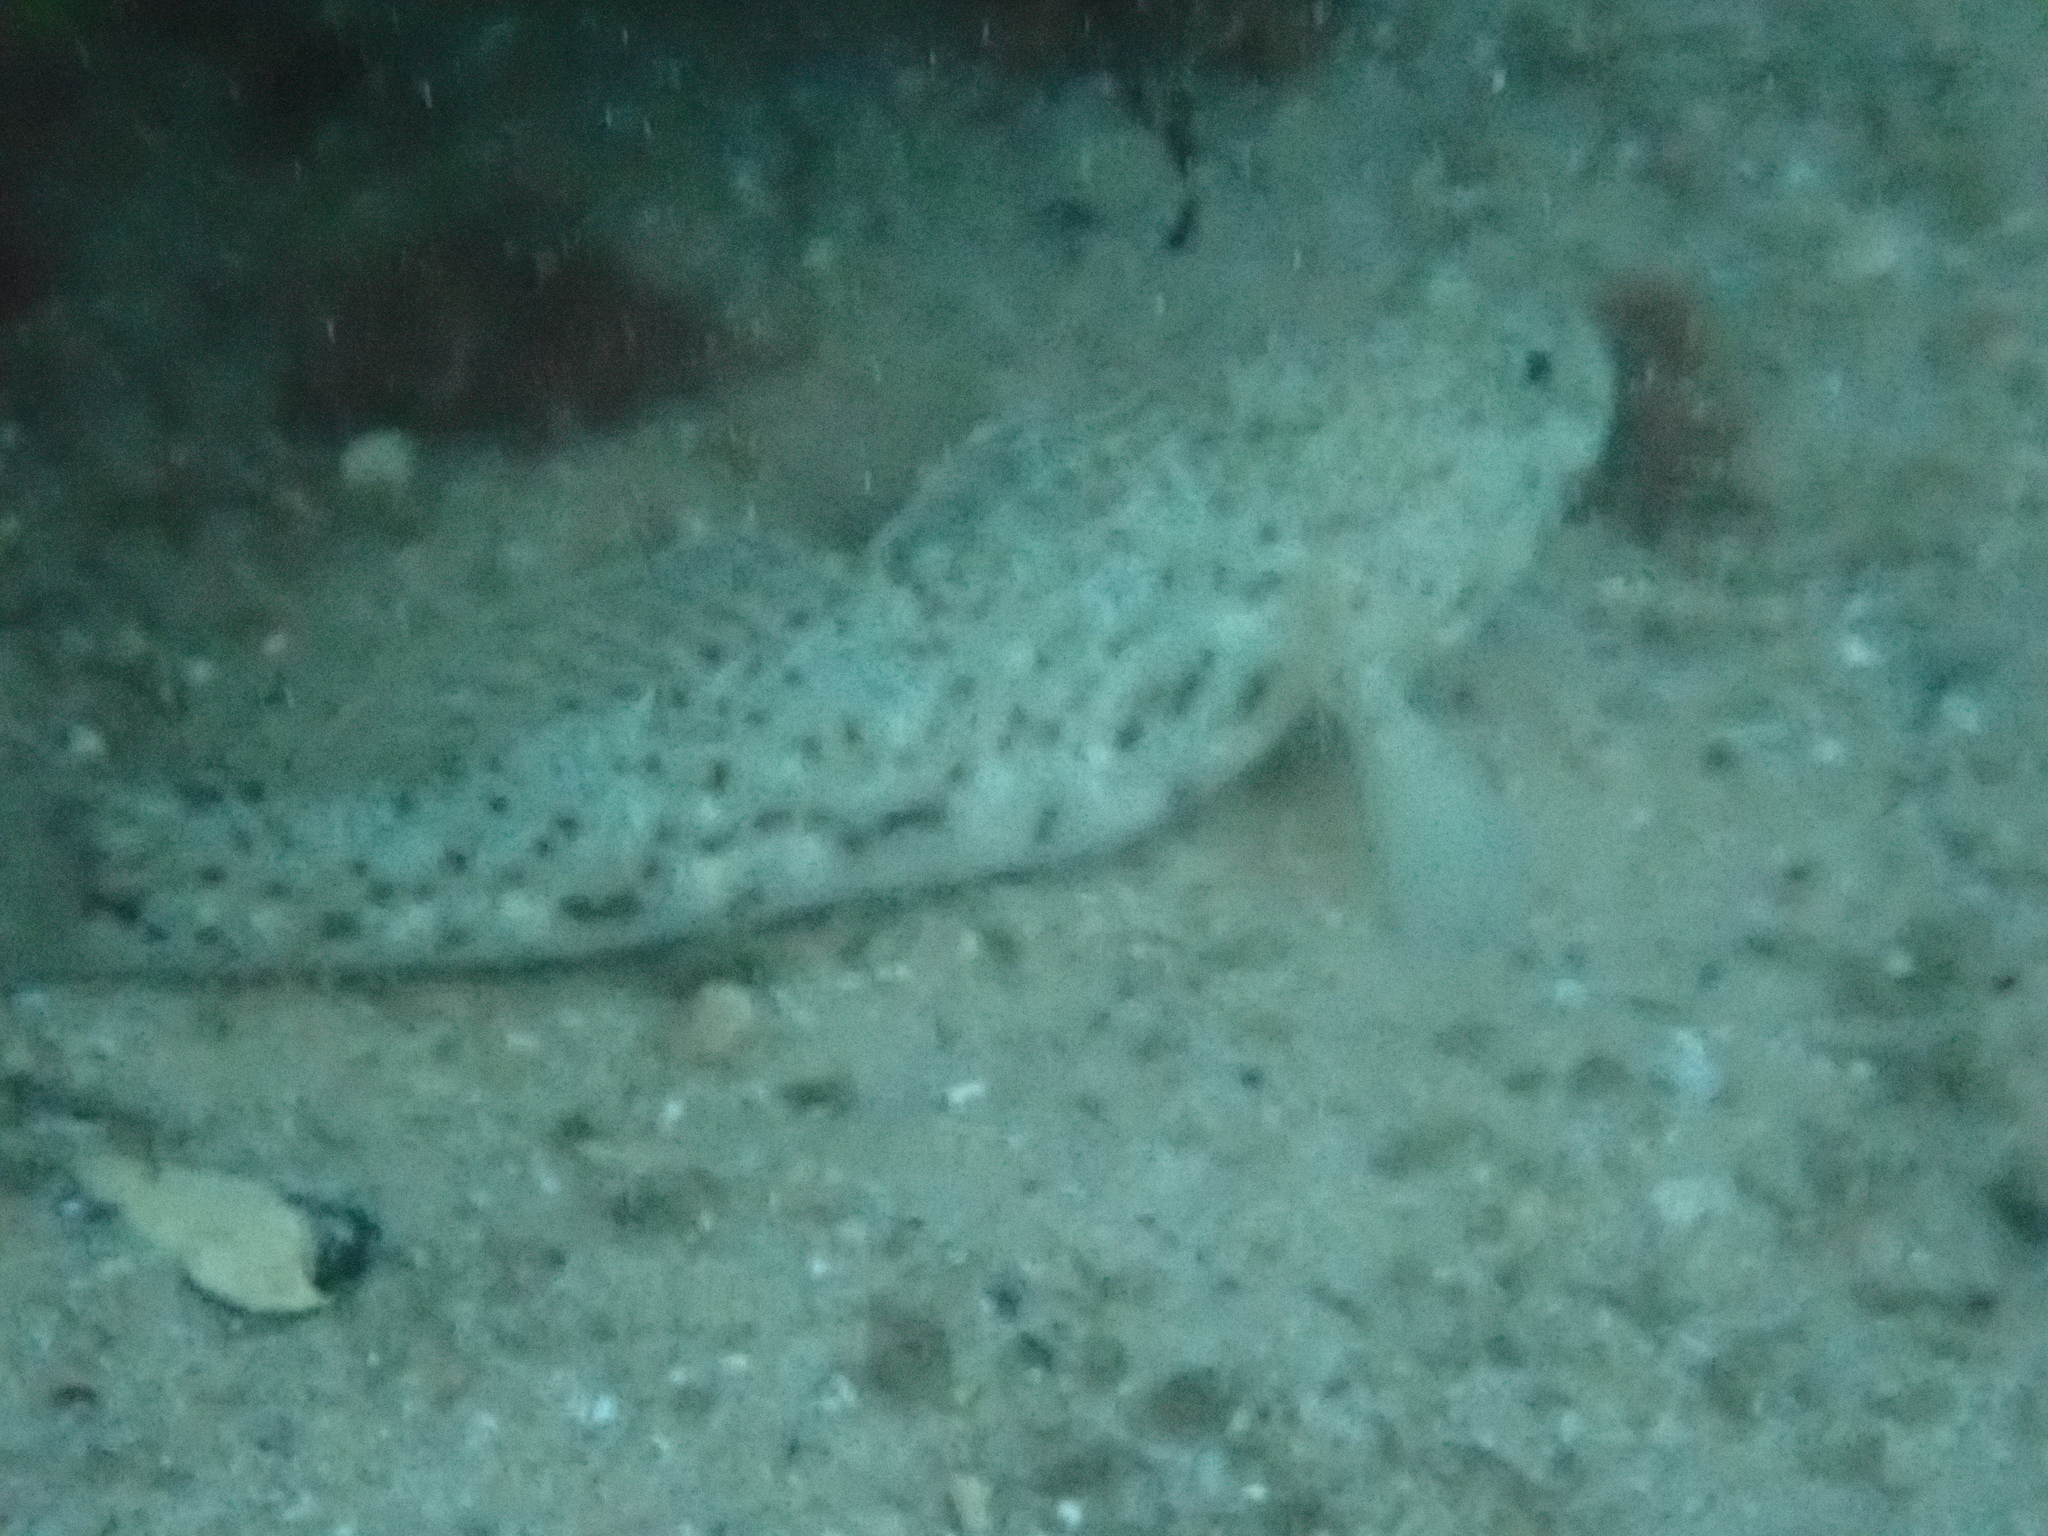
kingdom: Animalia
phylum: Chordata
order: Perciformes
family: Gobiidae
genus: Caffrogobius
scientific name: Caffrogobius saldanha
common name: Commafin goby
